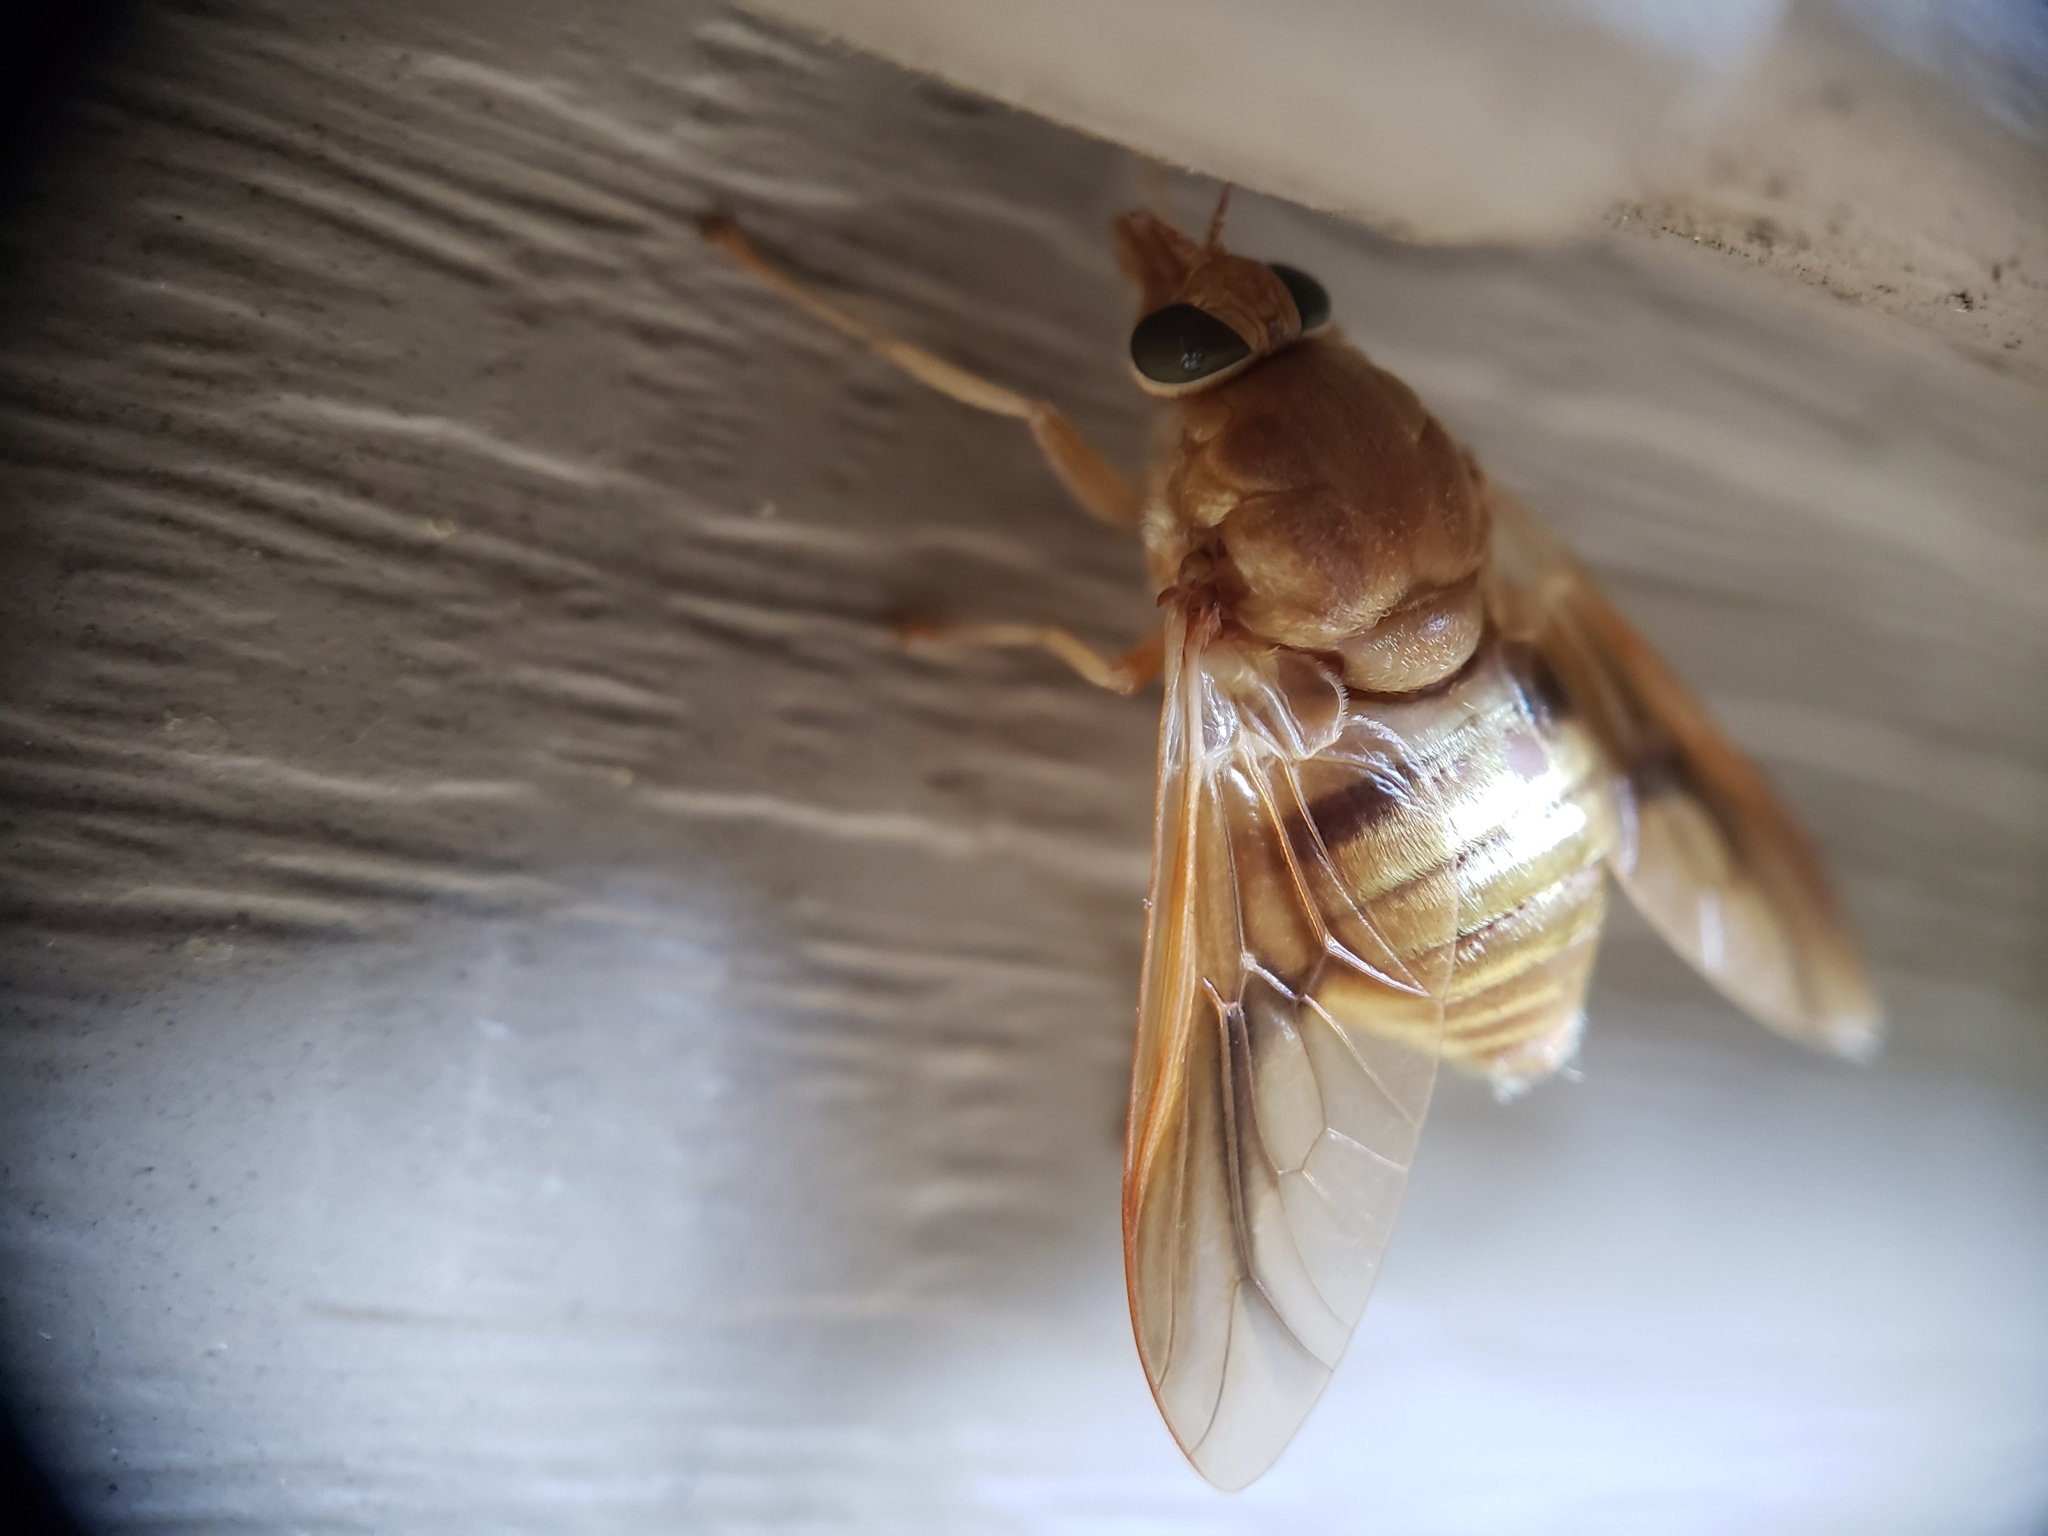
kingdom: Animalia
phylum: Arthropoda
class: Insecta
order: Diptera
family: Tabanidae
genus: Goniops
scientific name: Goniops chrysocoma
